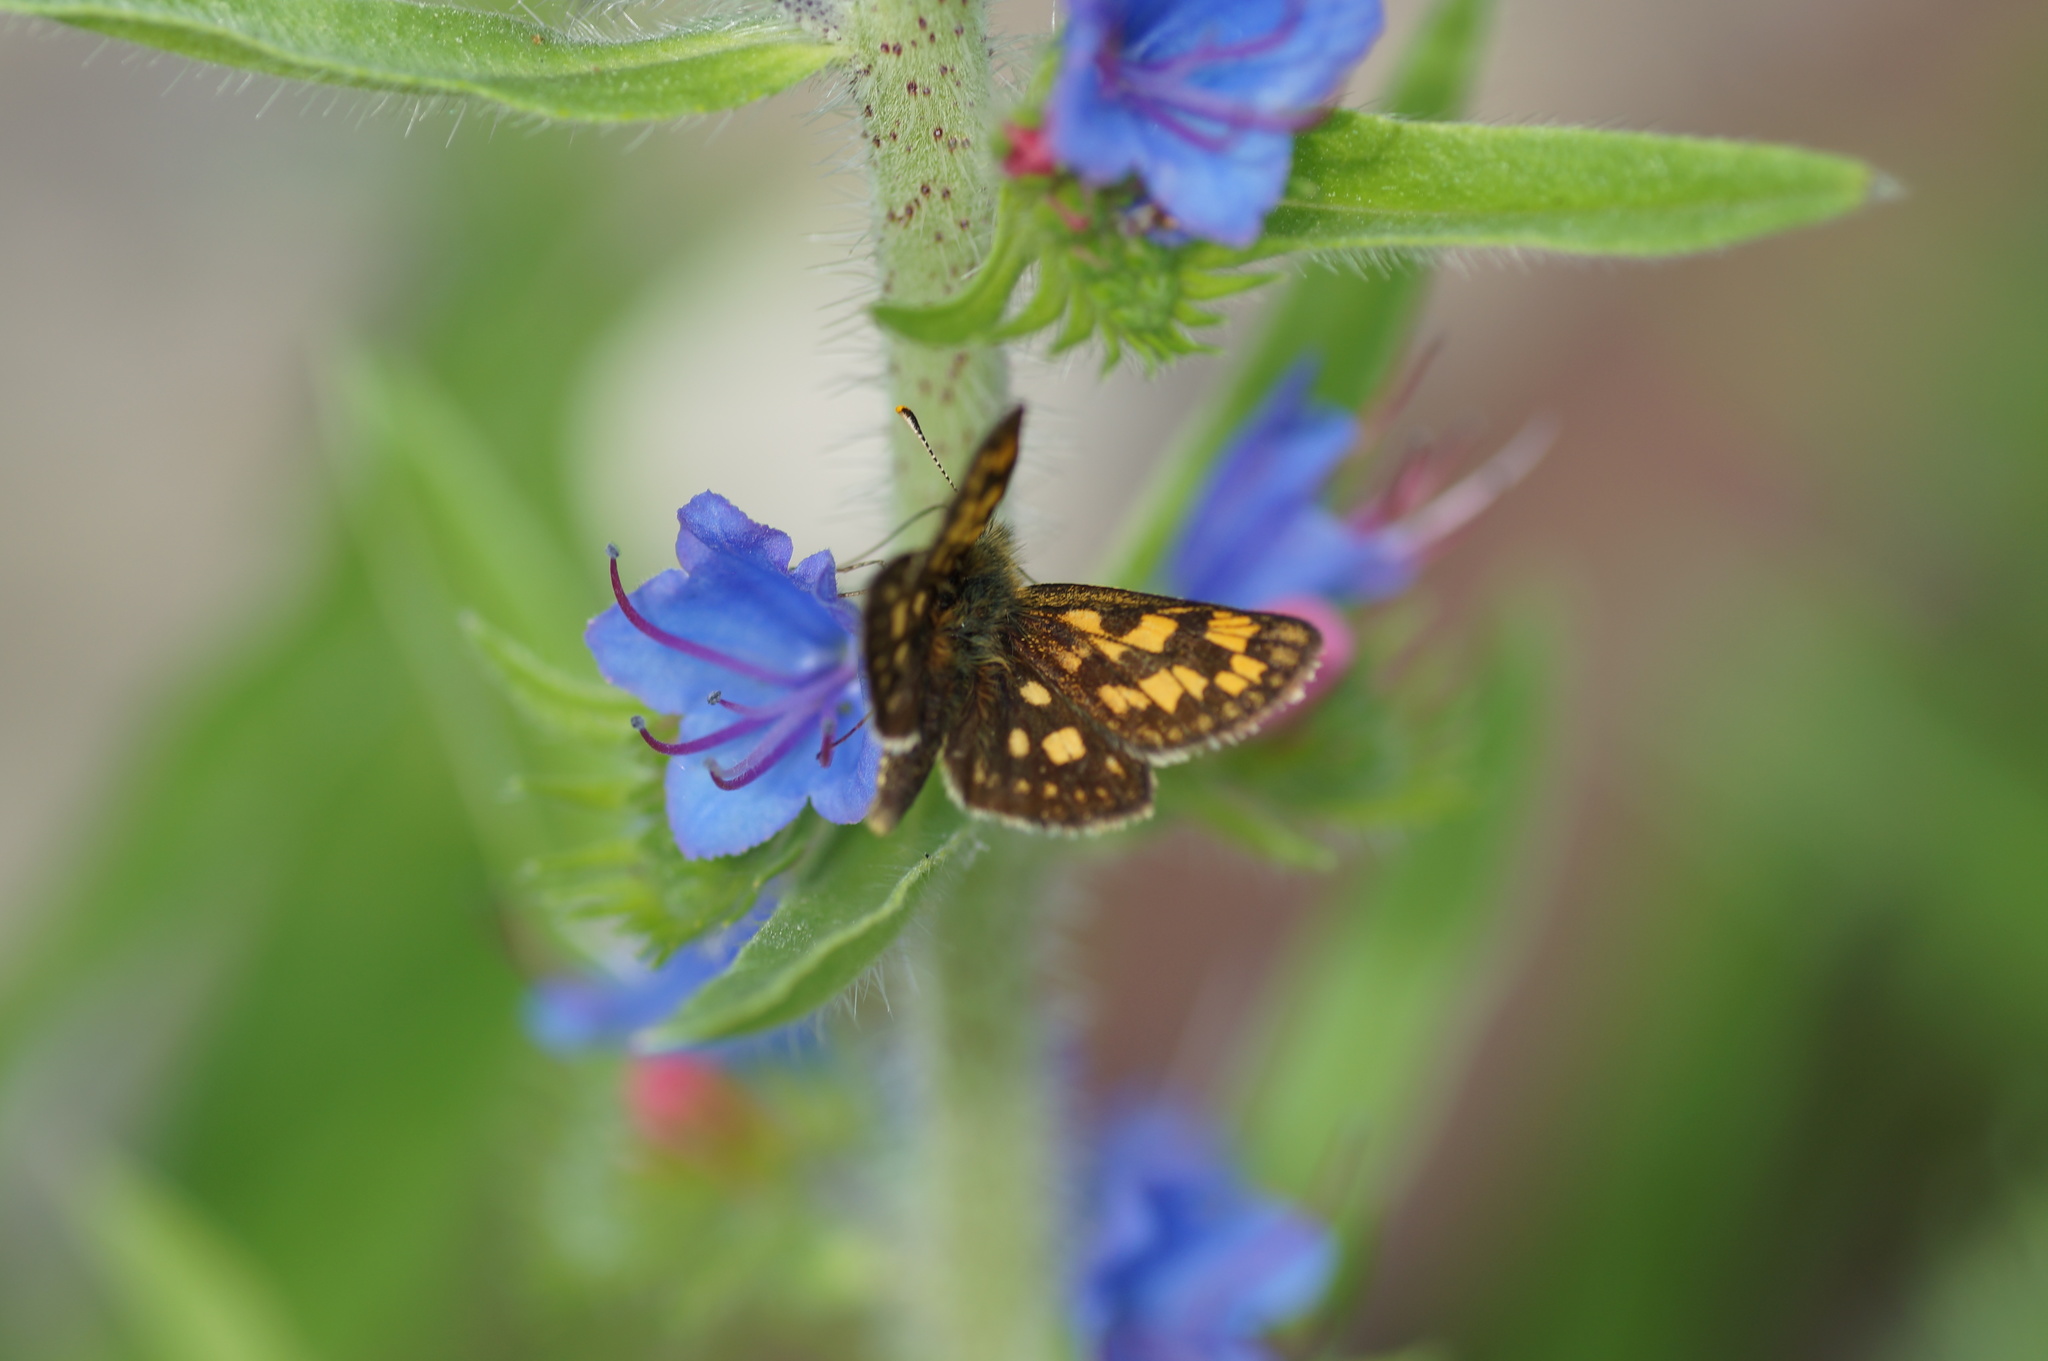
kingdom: Animalia
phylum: Arthropoda
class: Insecta
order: Lepidoptera
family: Hesperiidae
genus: Carterocephalus
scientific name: Carterocephalus palaemon
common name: Chequered skipper
